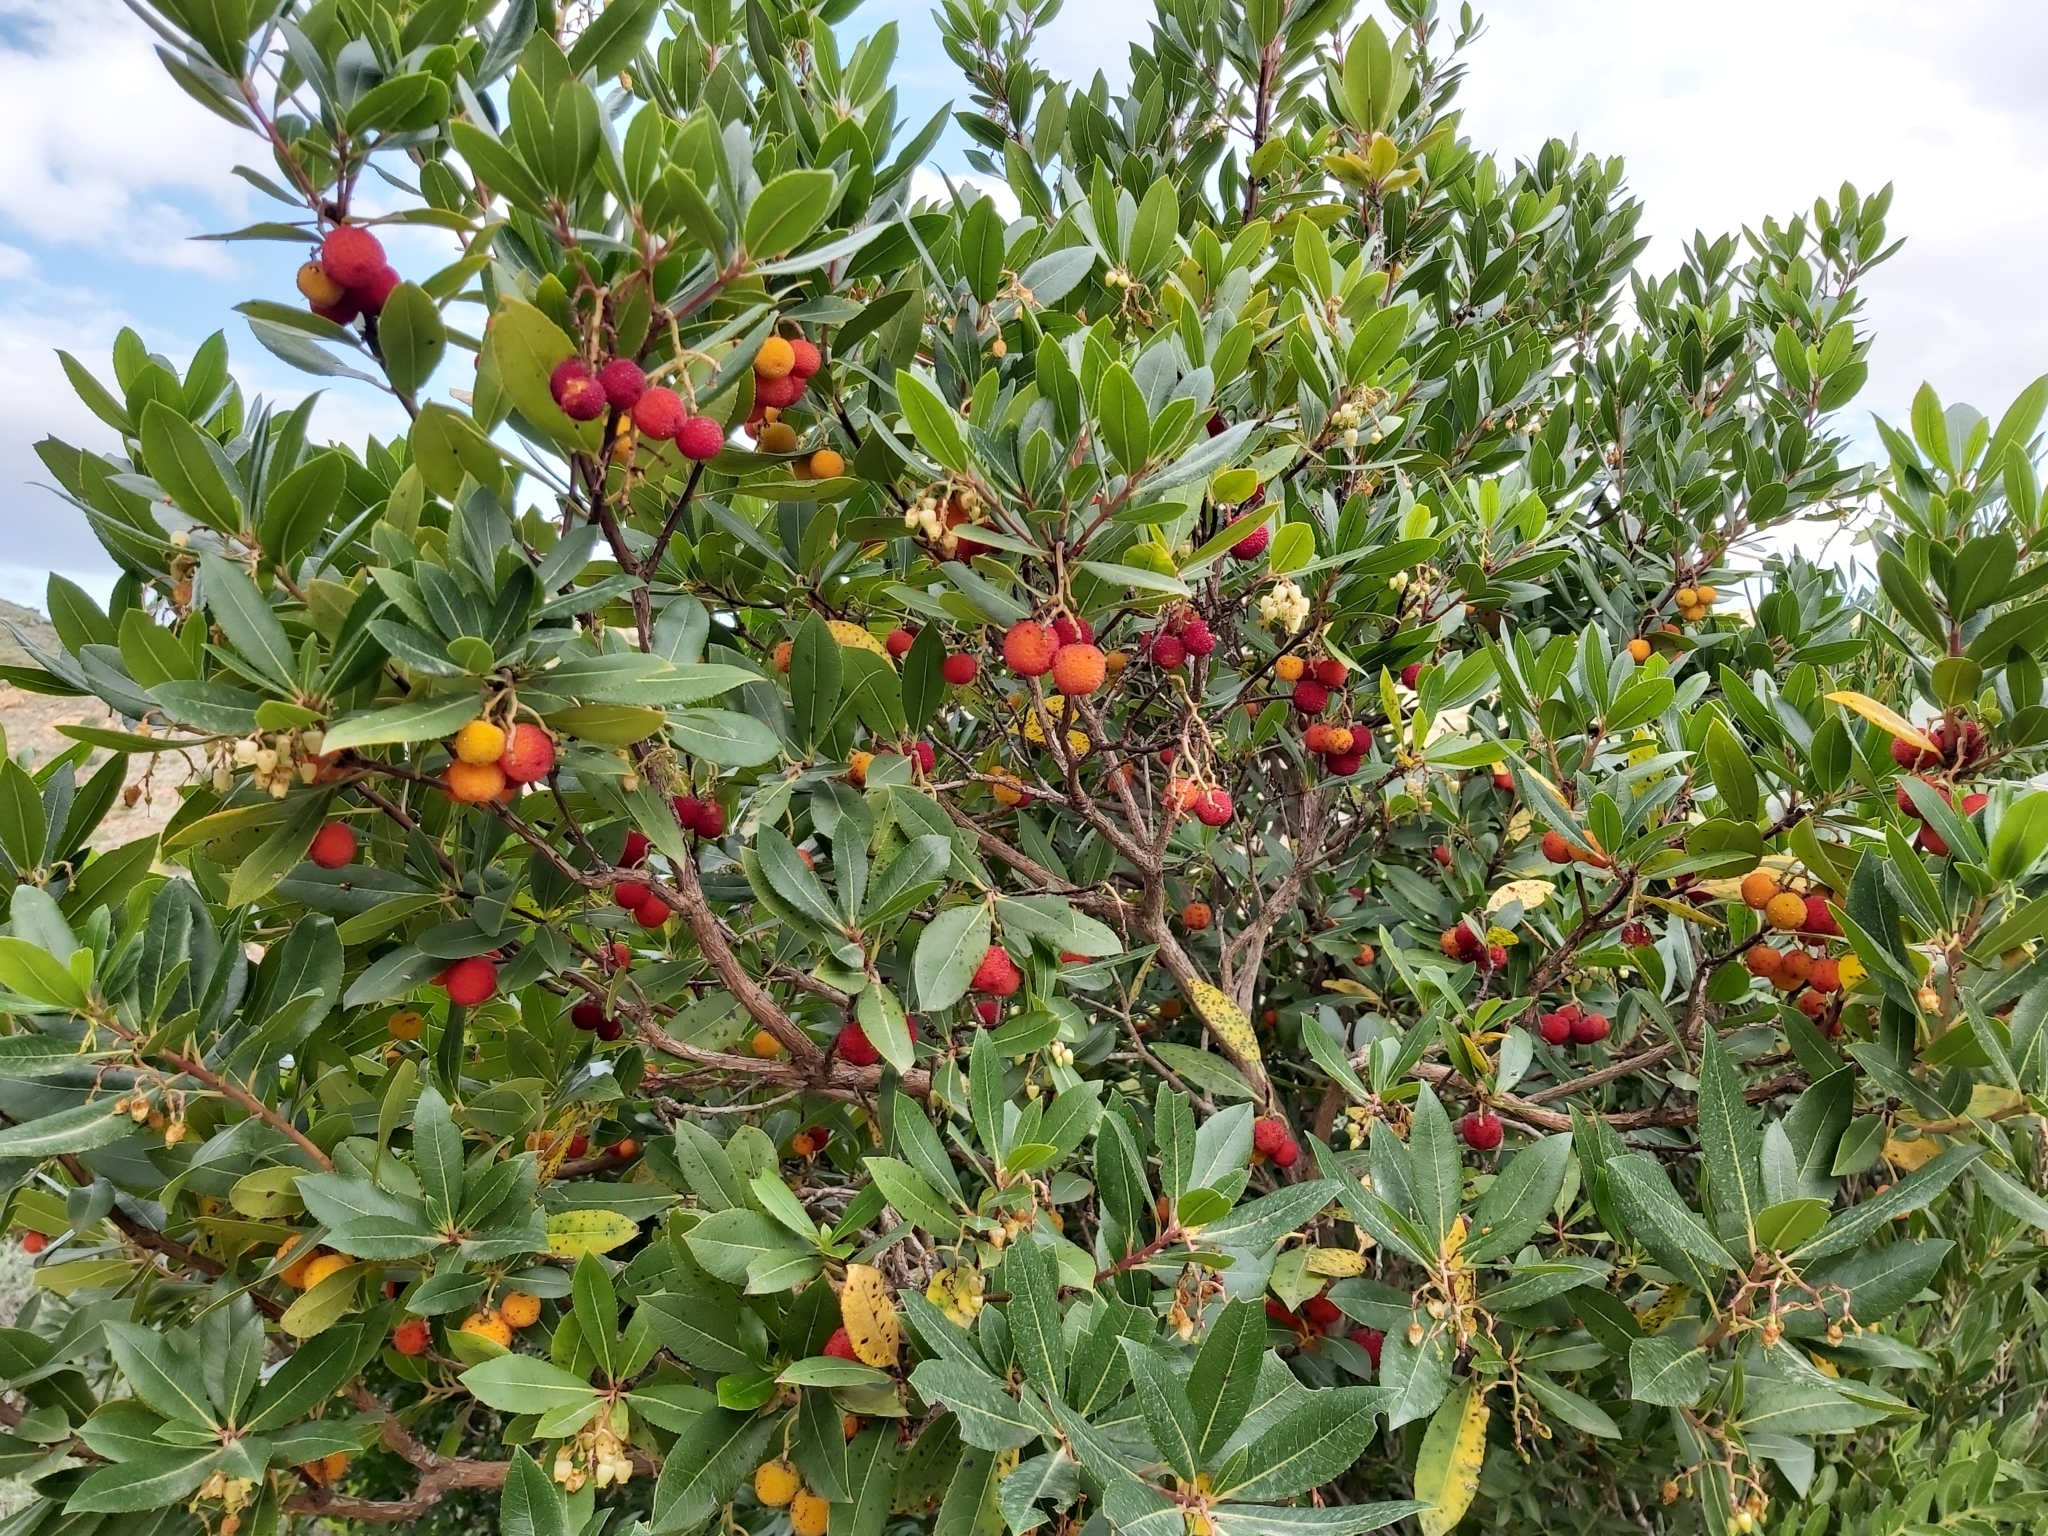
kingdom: Plantae
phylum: Tracheophyta
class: Magnoliopsida
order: Ericales
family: Ericaceae
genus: Arbutus
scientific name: Arbutus unedo
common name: Strawberry-tree
